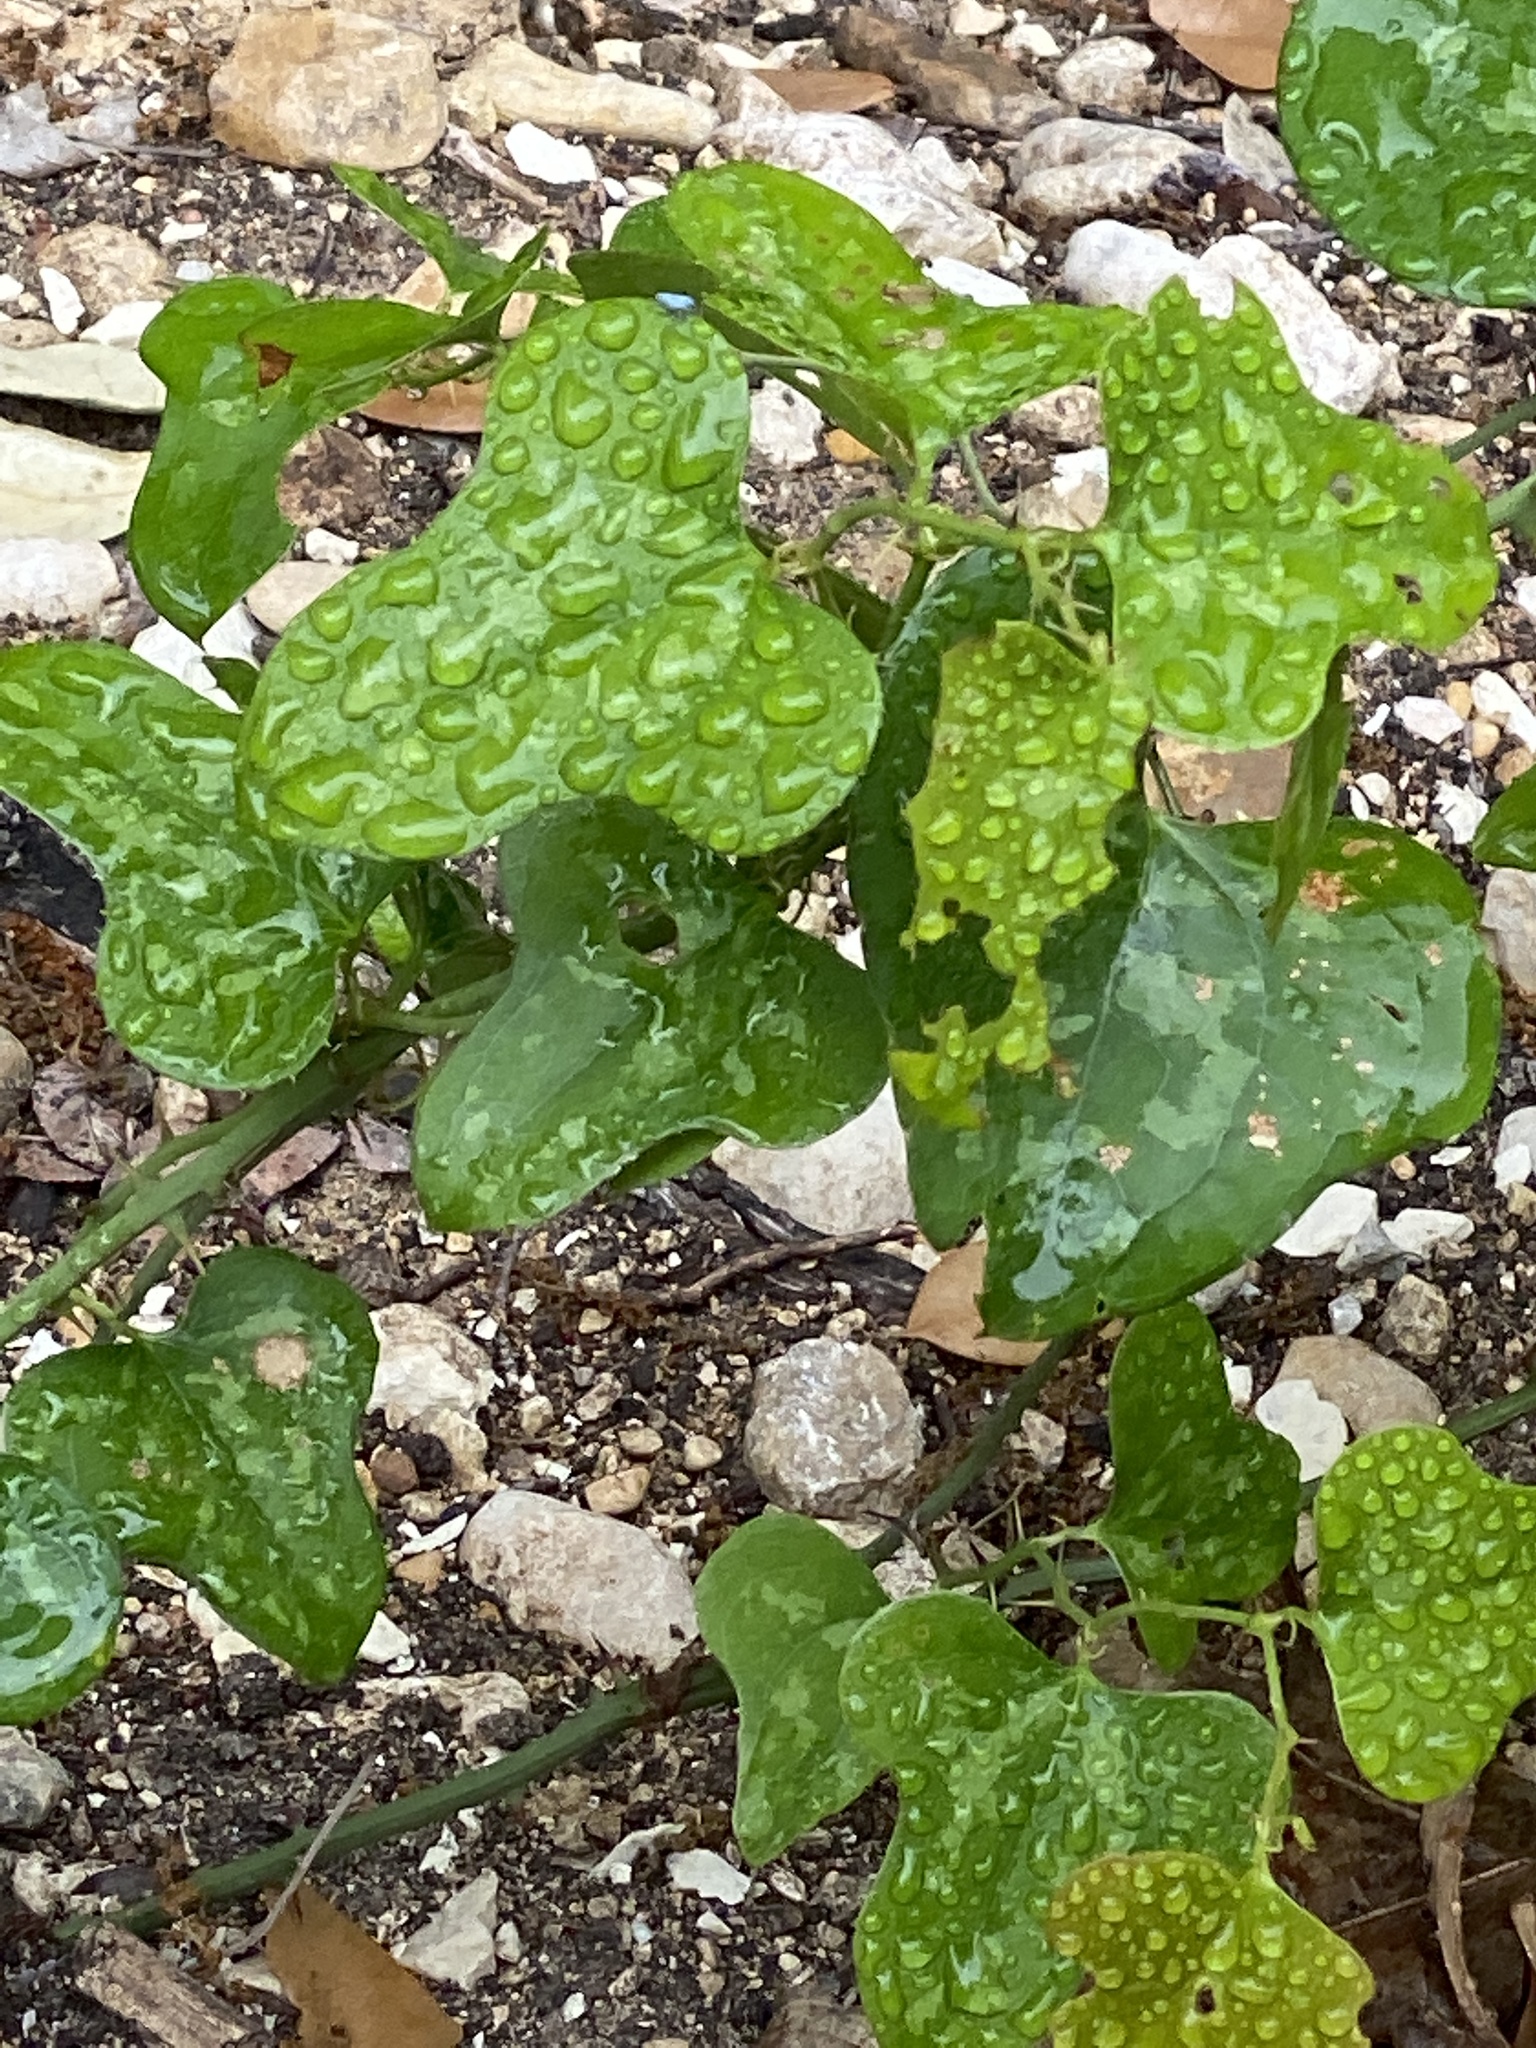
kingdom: Plantae
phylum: Tracheophyta
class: Liliopsida
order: Liliales
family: Smilacaceae
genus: Smilax
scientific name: Smilax bona-nox
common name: Catbrier
